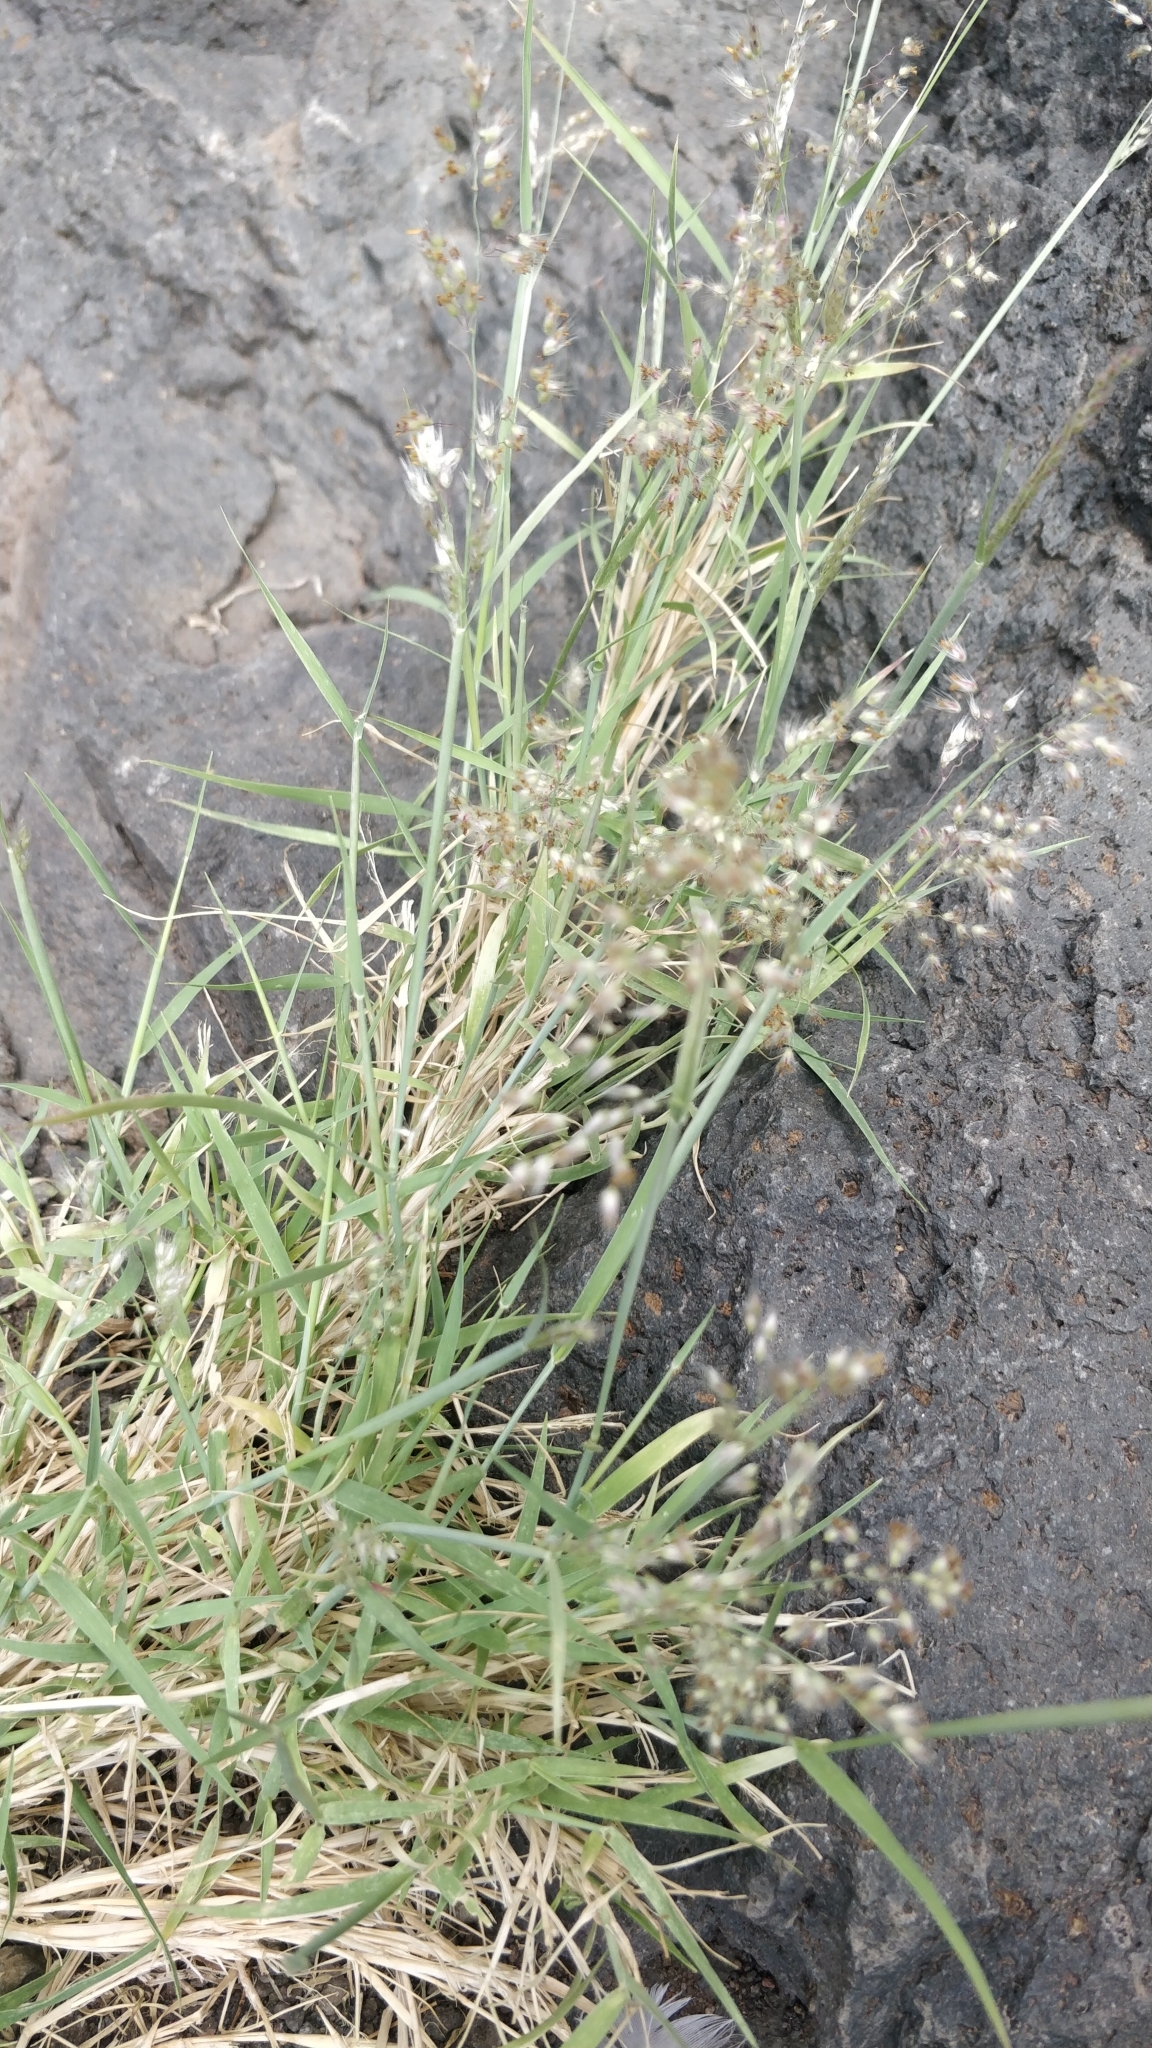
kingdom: Plantae
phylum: Tracheophyta
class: Liliopsida
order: Poales
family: Poaceae
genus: Hyparrhenia
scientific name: Hyparrhenia hirta
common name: Thatching grass
